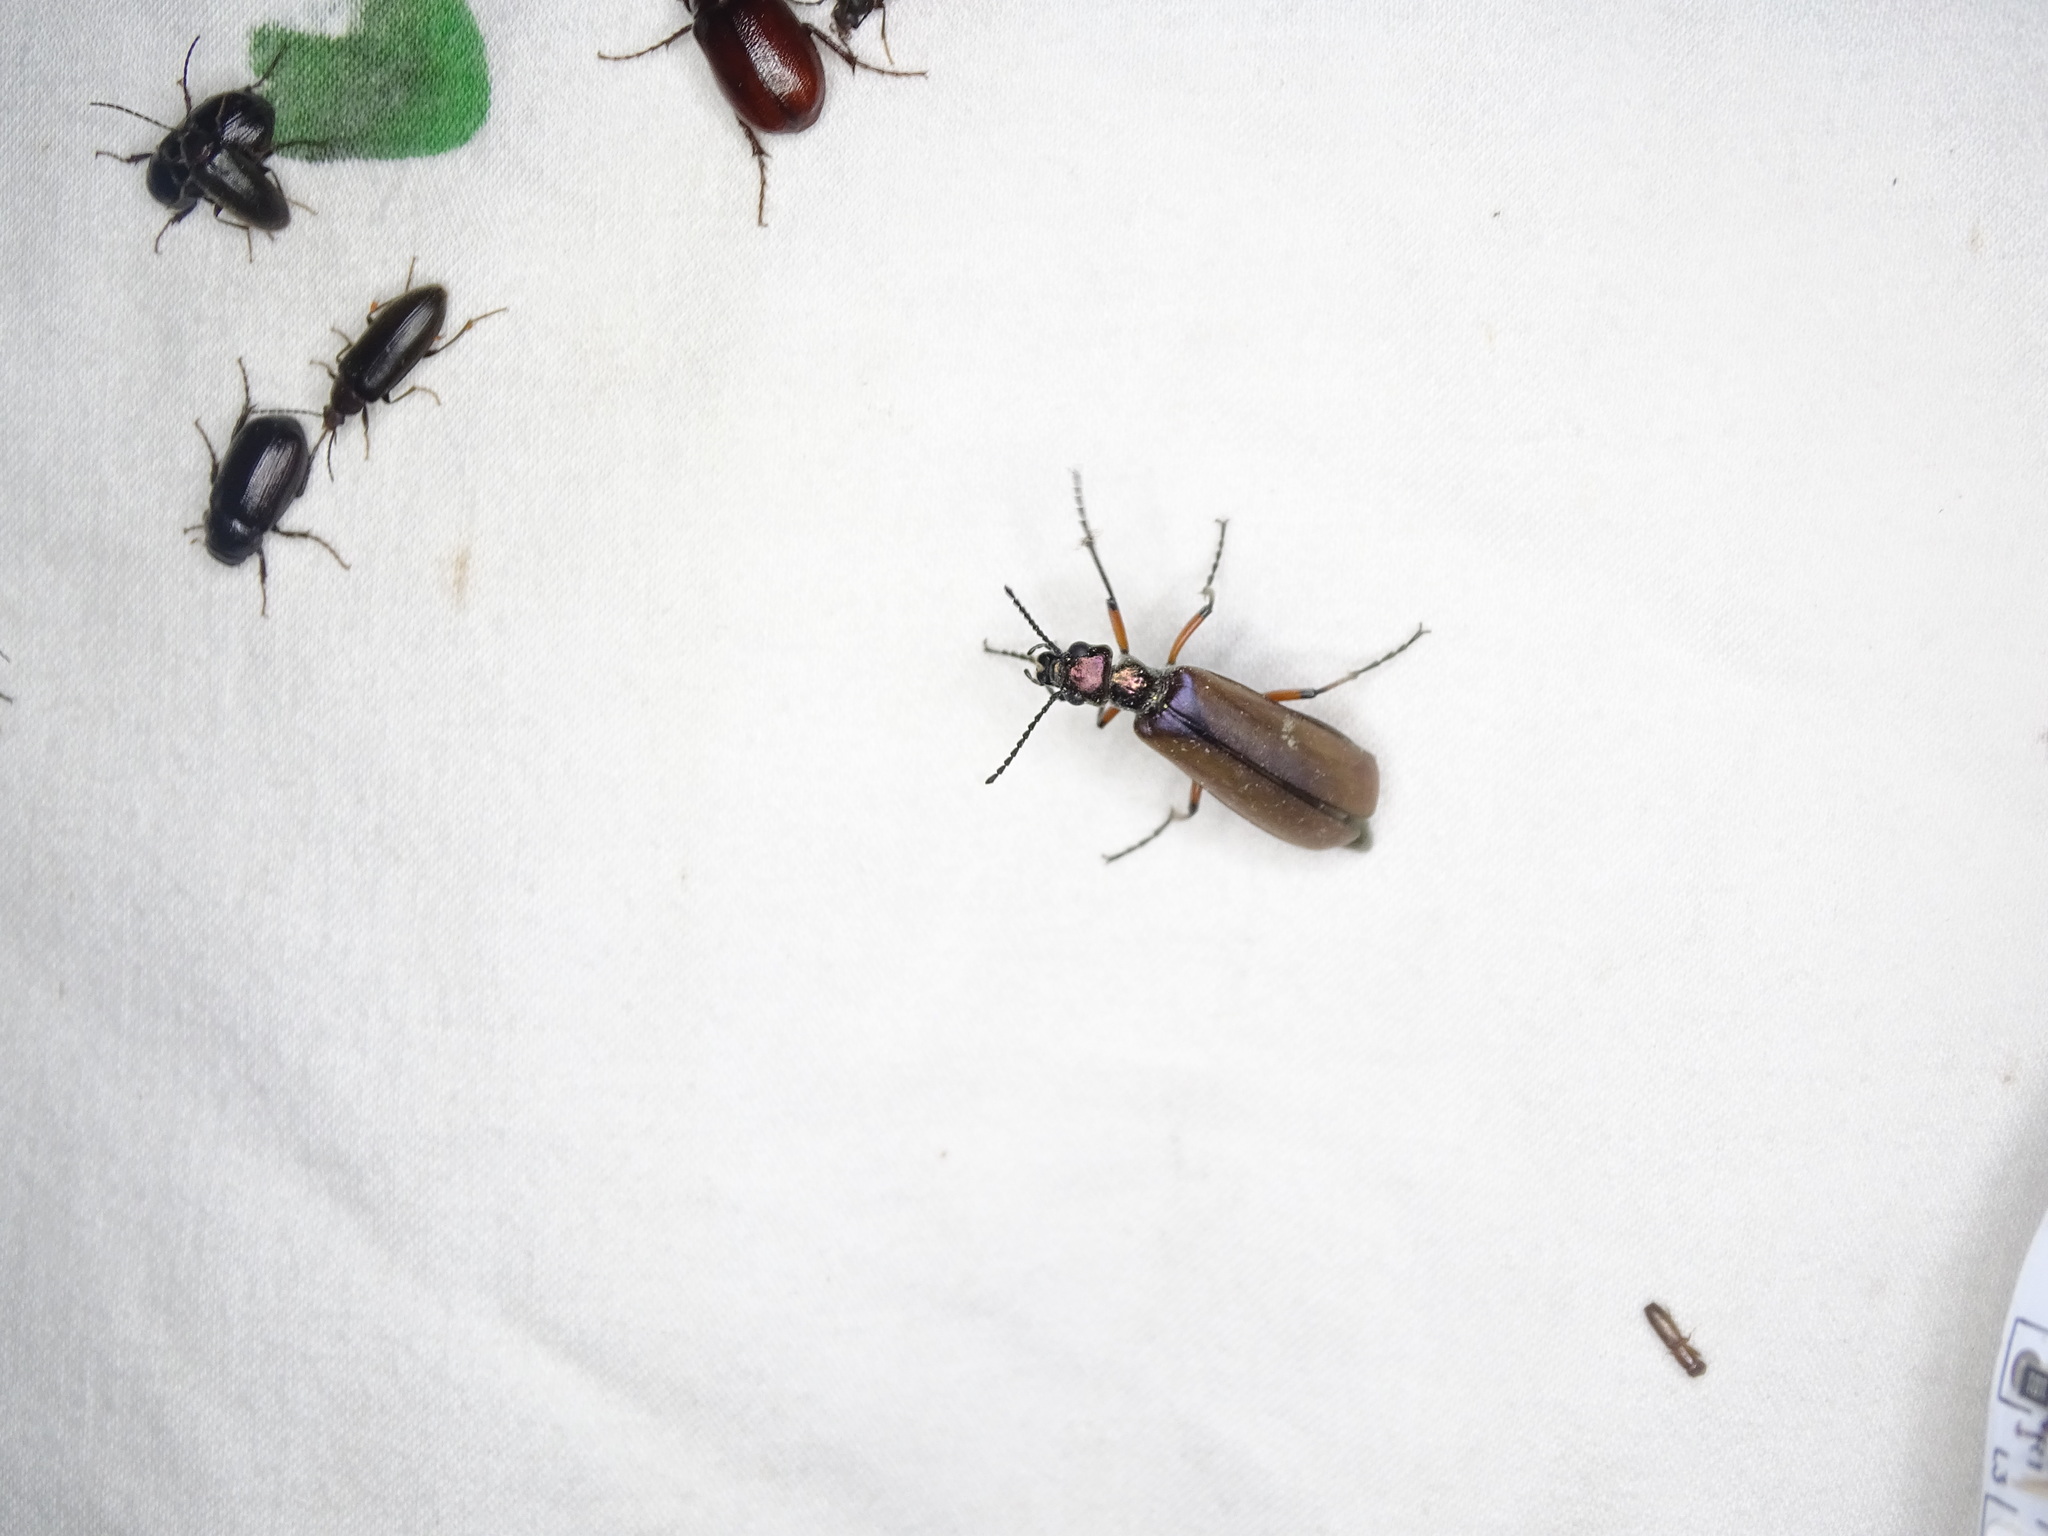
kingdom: Animalia
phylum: Arthropoda
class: Insecta
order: Coleoptera
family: Meloidae
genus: Lytta
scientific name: Lytta polita
